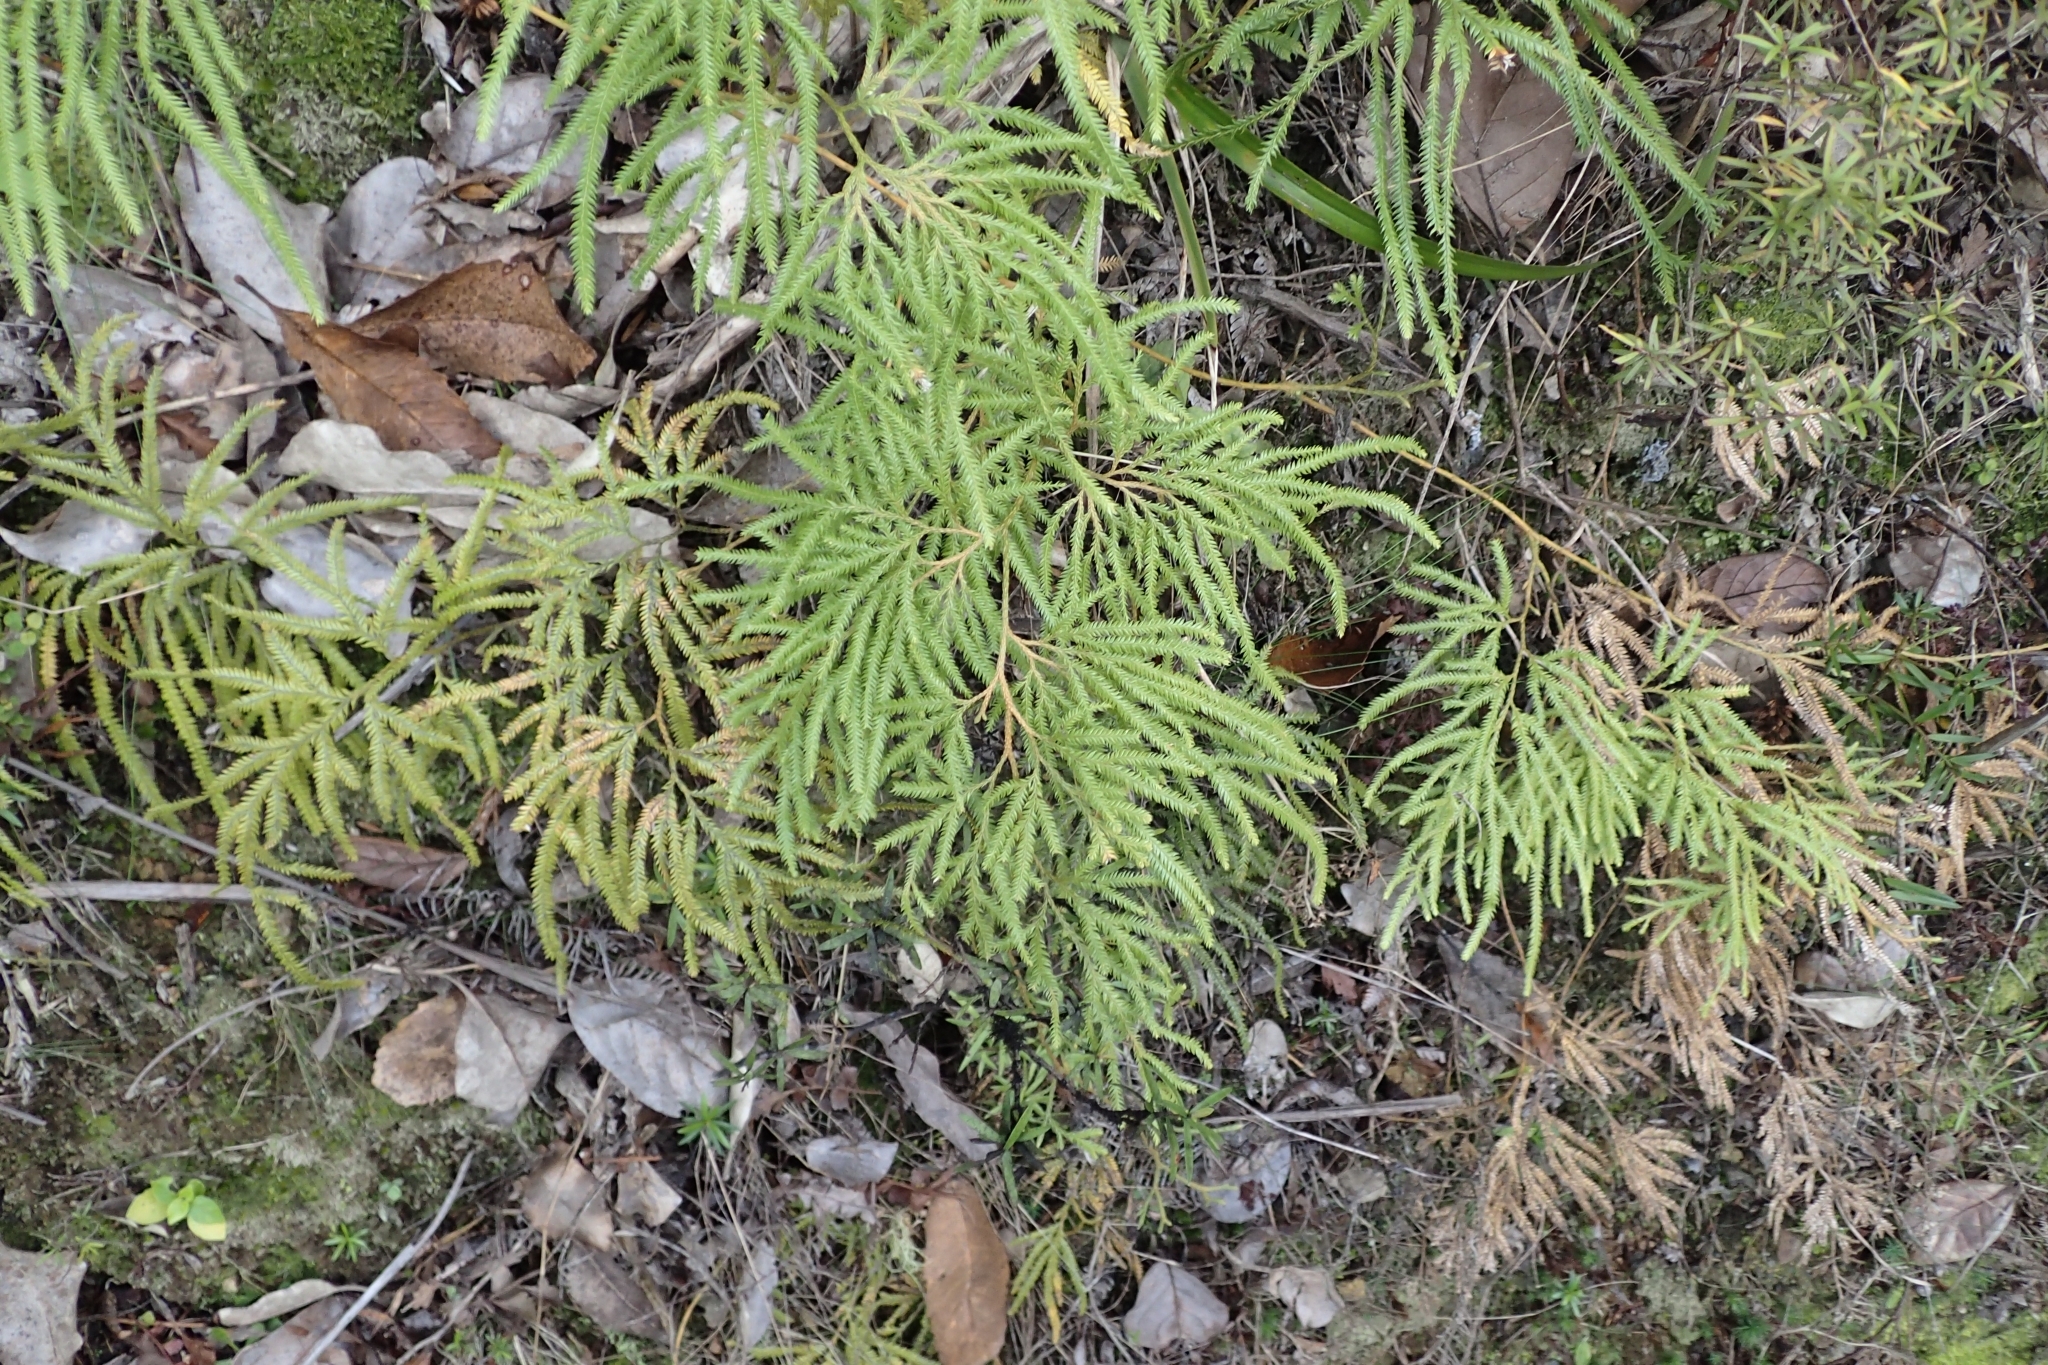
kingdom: Plantae
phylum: Tracheophyta
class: Lycopodiopsida
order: Lycopodiales
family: Lycopodiaceae
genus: Lycopodium
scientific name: Lycopodium volubile
